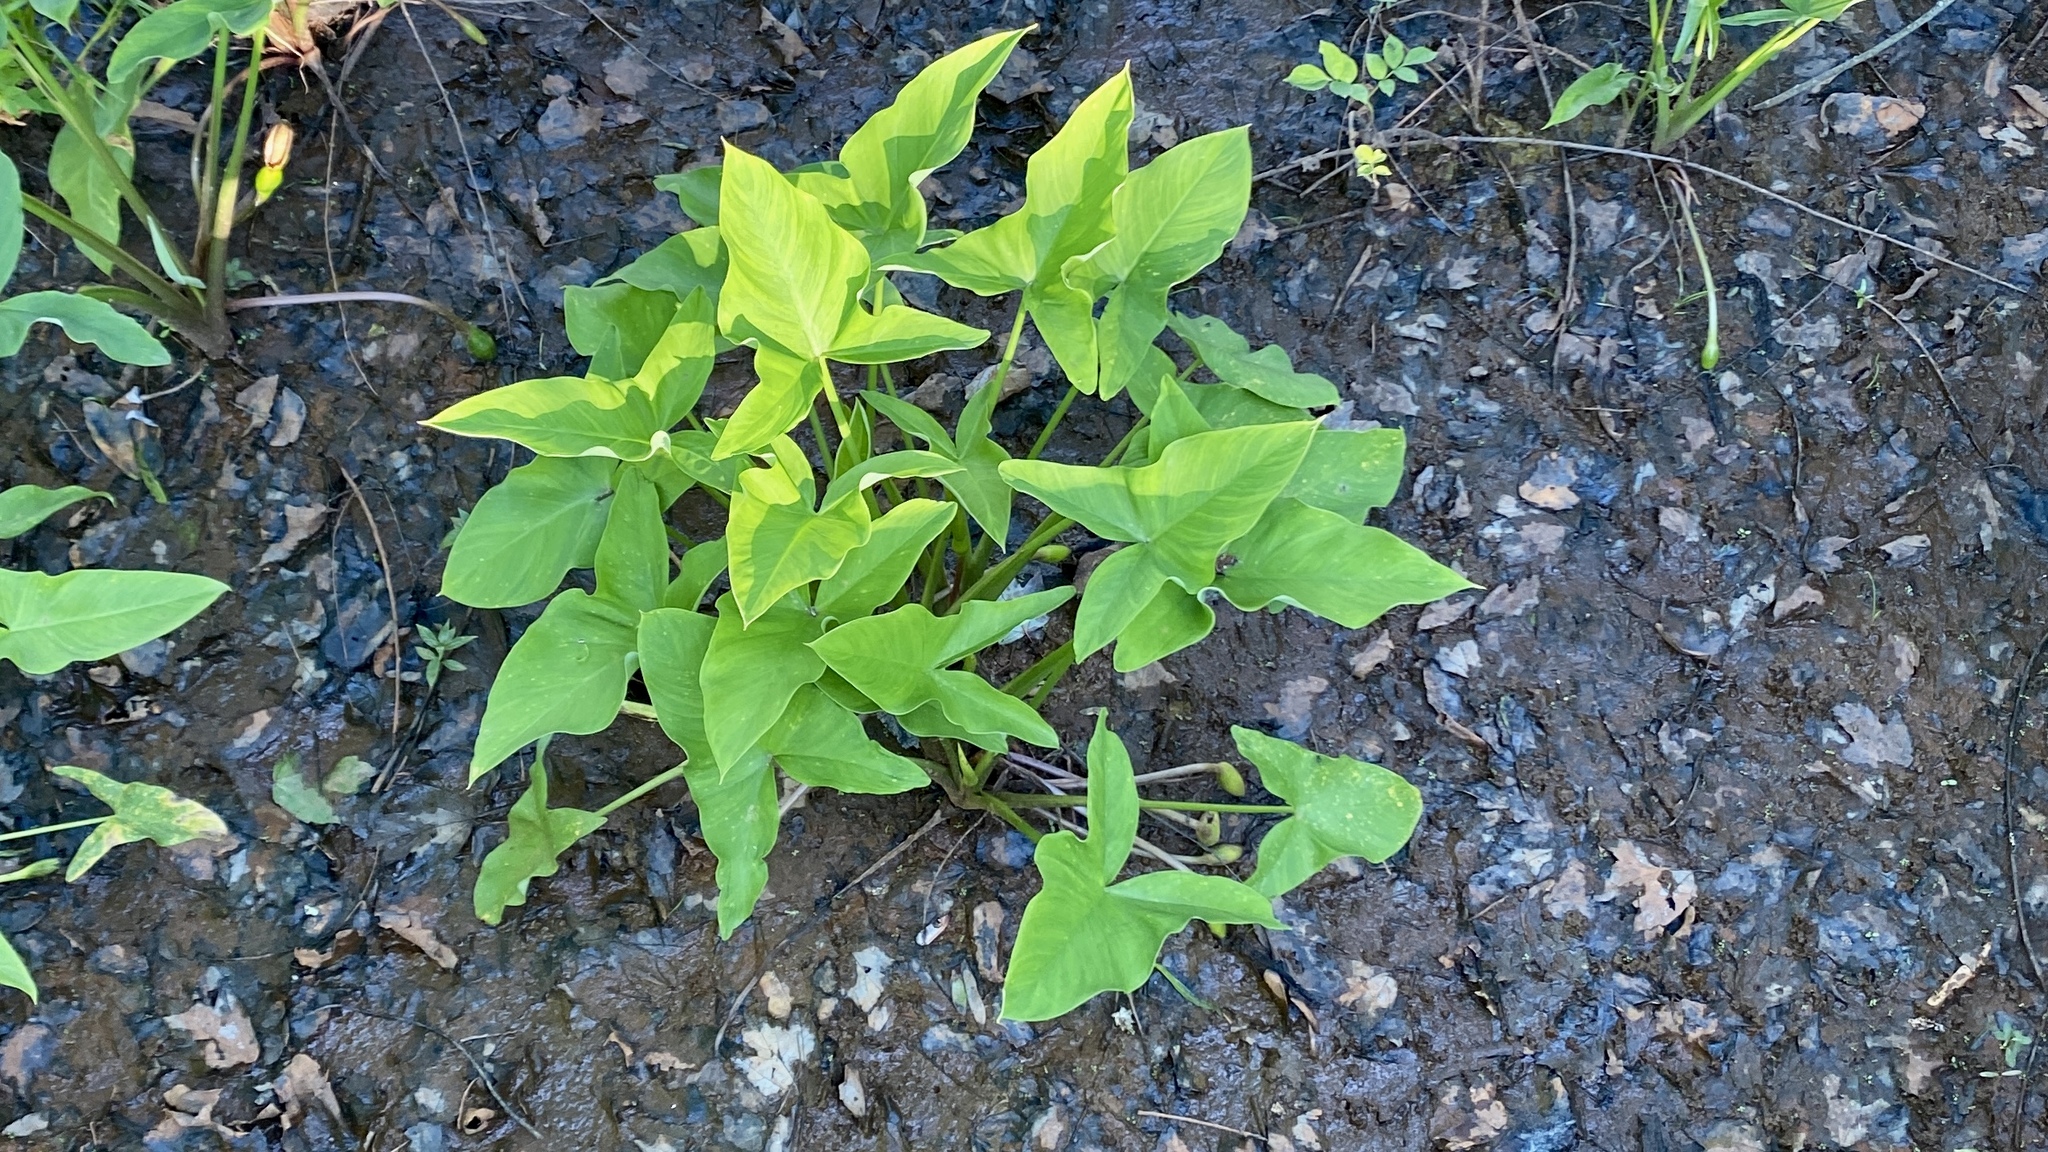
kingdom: Plantae
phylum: Tracheophyta
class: Liliopsida
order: Alismatales
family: Araceae
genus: Peltandra
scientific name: Peltandra virginica
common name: Arrow arum
